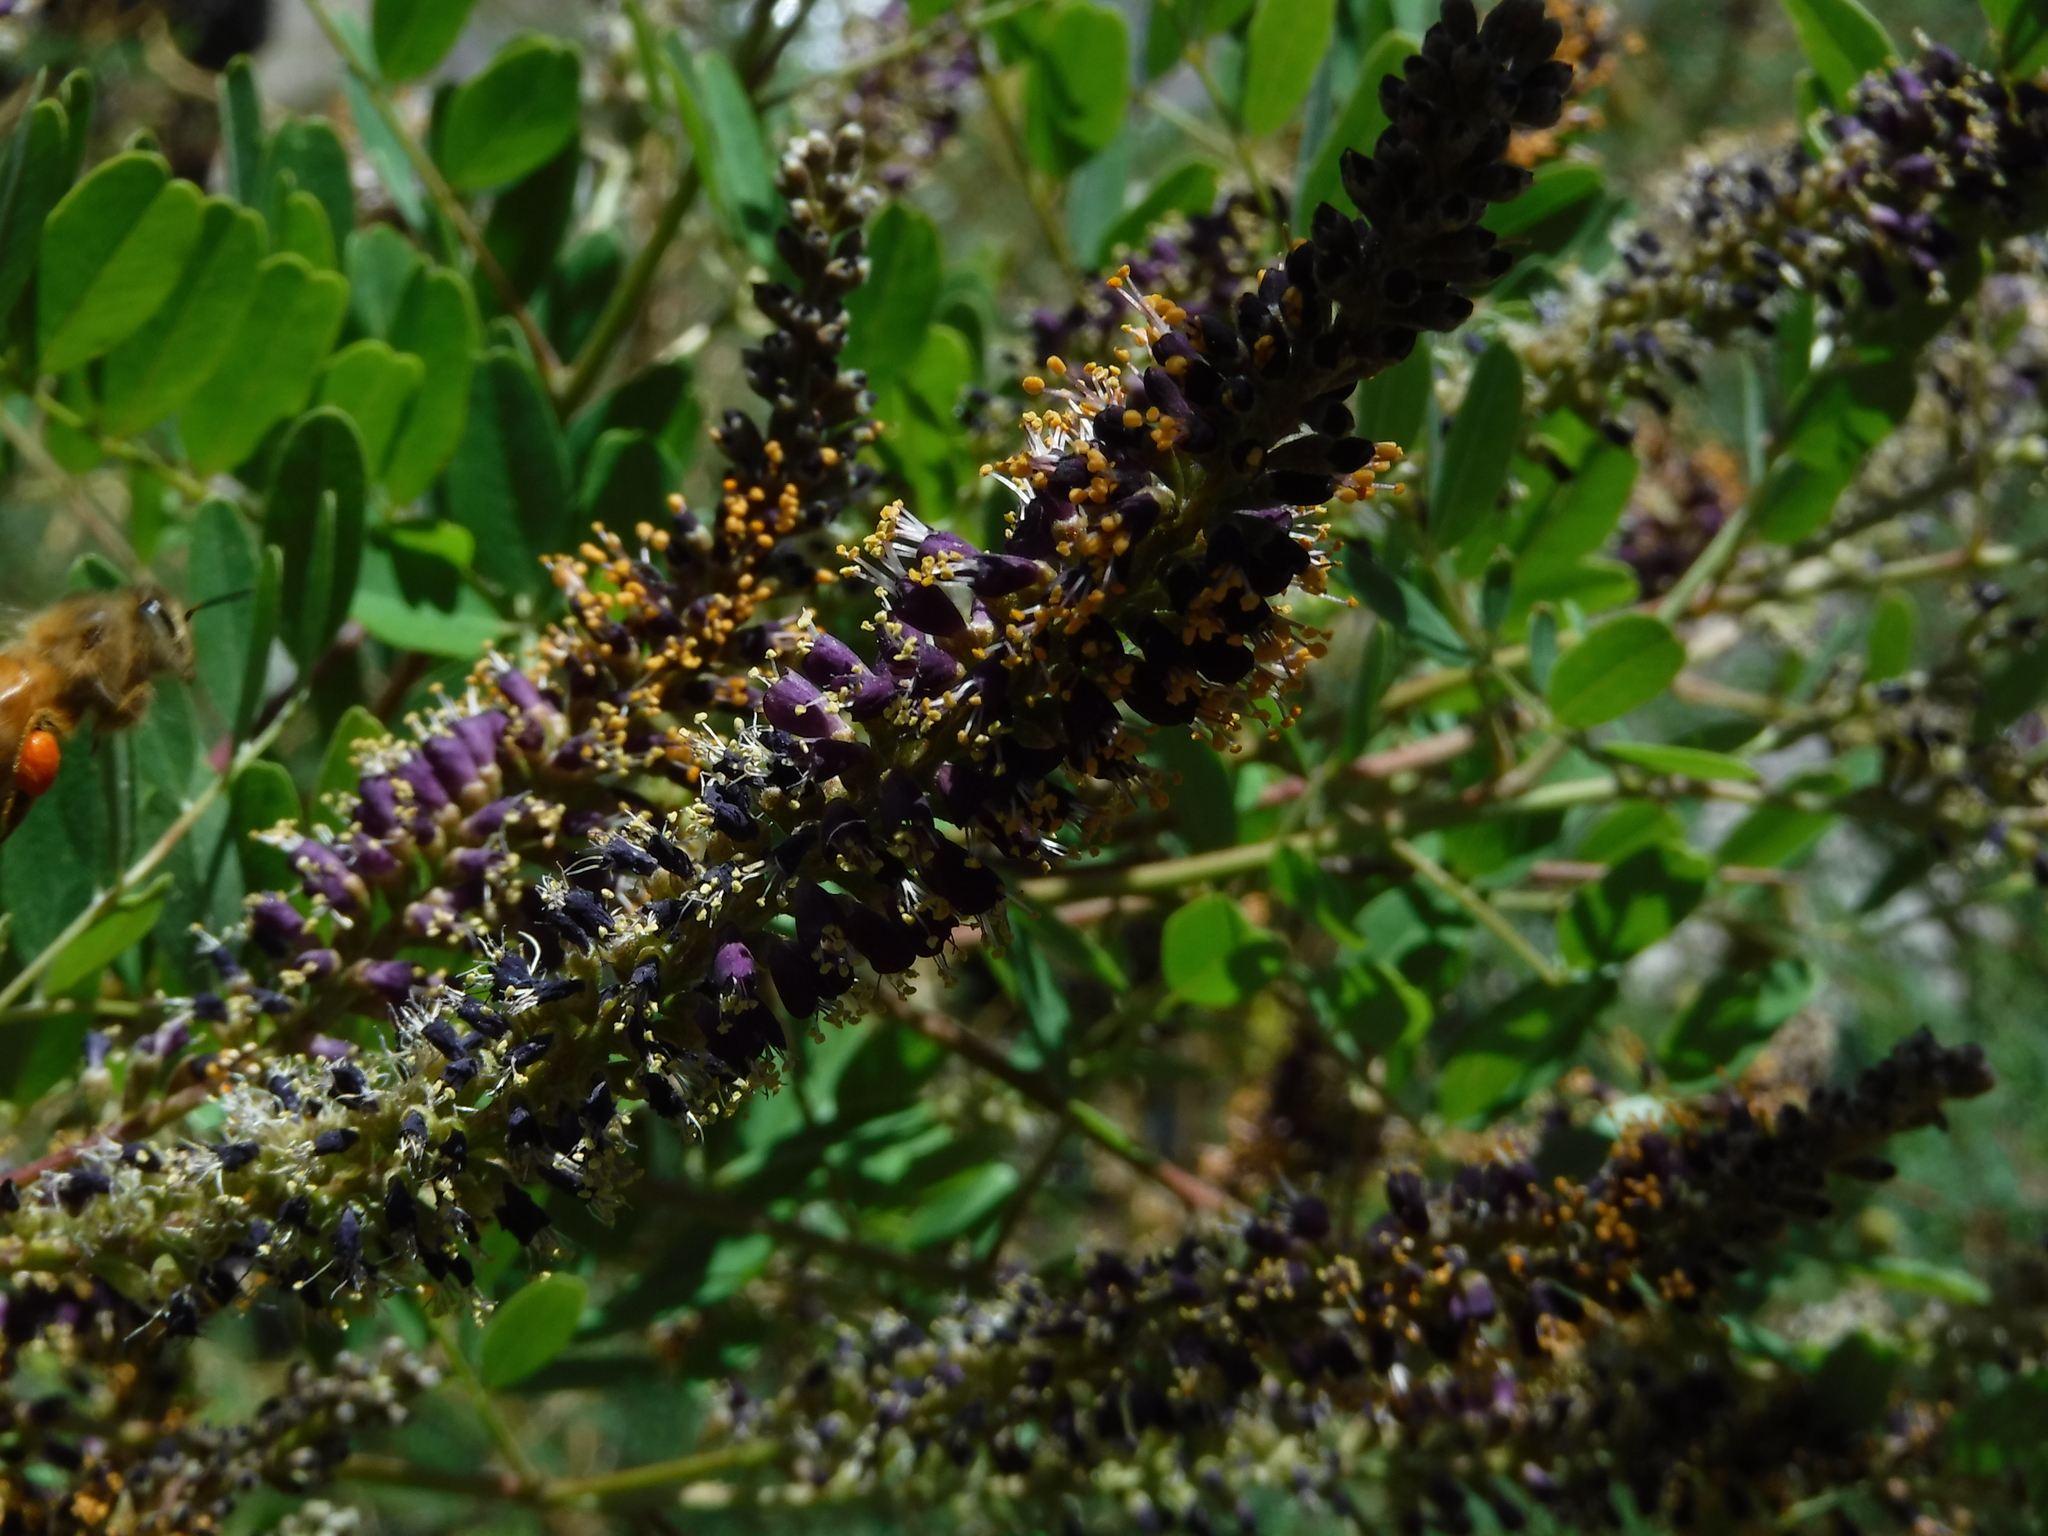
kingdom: Animalia
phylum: Arthropoda
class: Insecta
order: Hymenoptera
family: Apidae
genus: Apis
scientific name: Apis mellifera
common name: Honey bee
